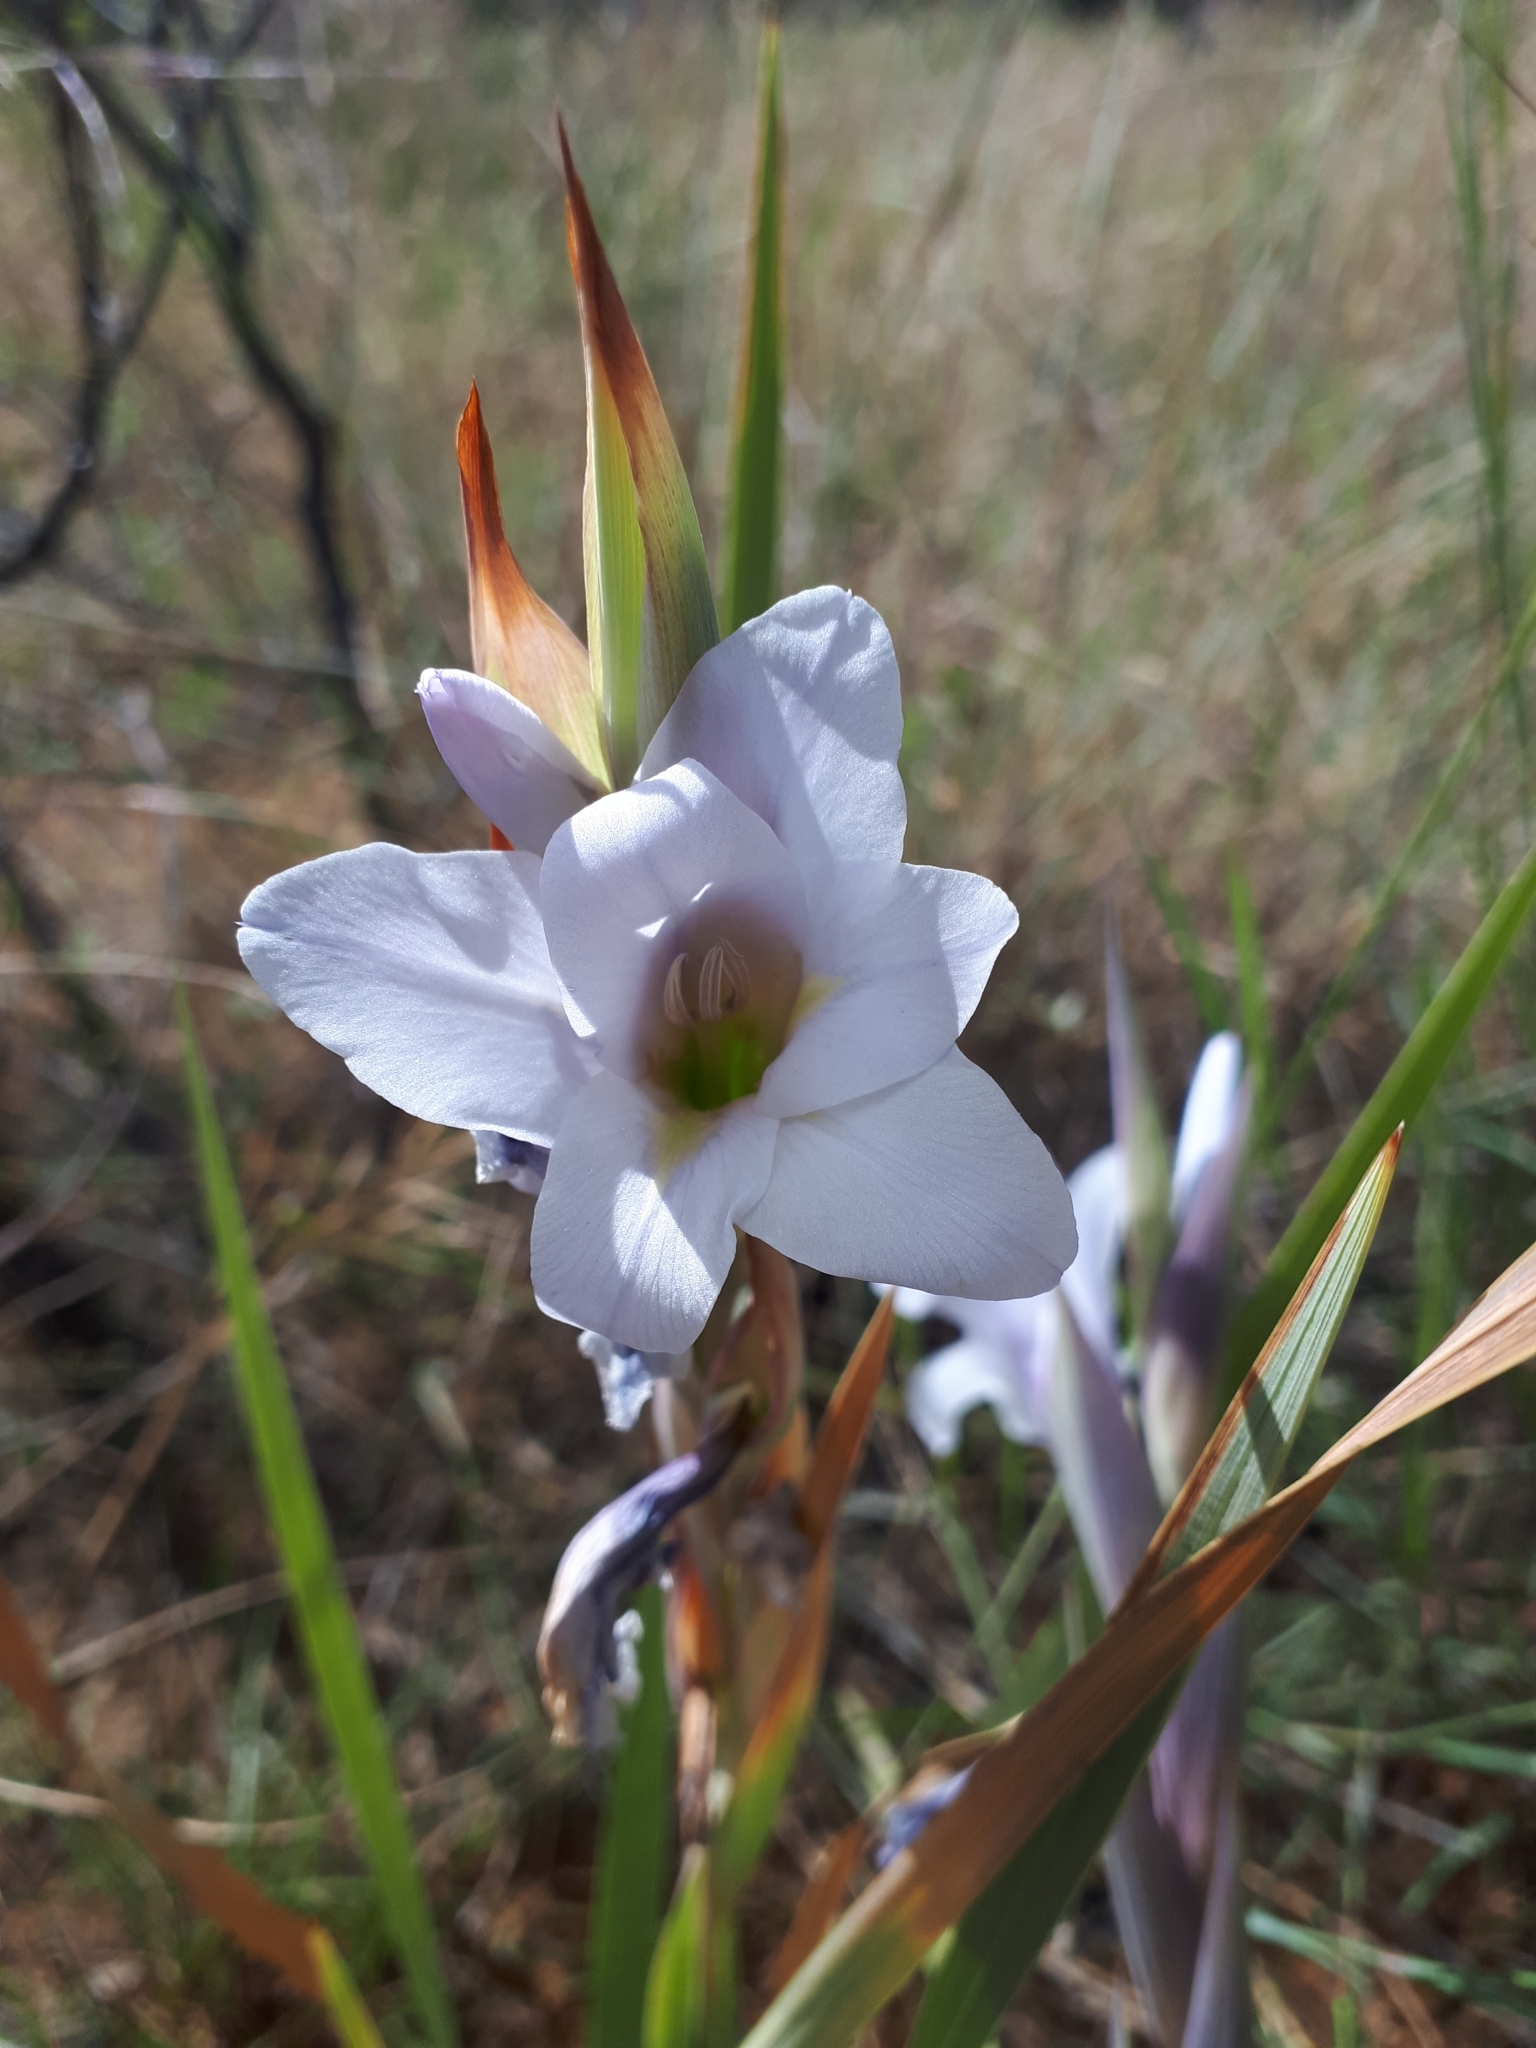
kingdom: Plantae
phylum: Tracheophyta
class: Liliopsida
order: Asparagales
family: Iridaceae
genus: Gladiolus
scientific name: Gladiolus rehmannii
